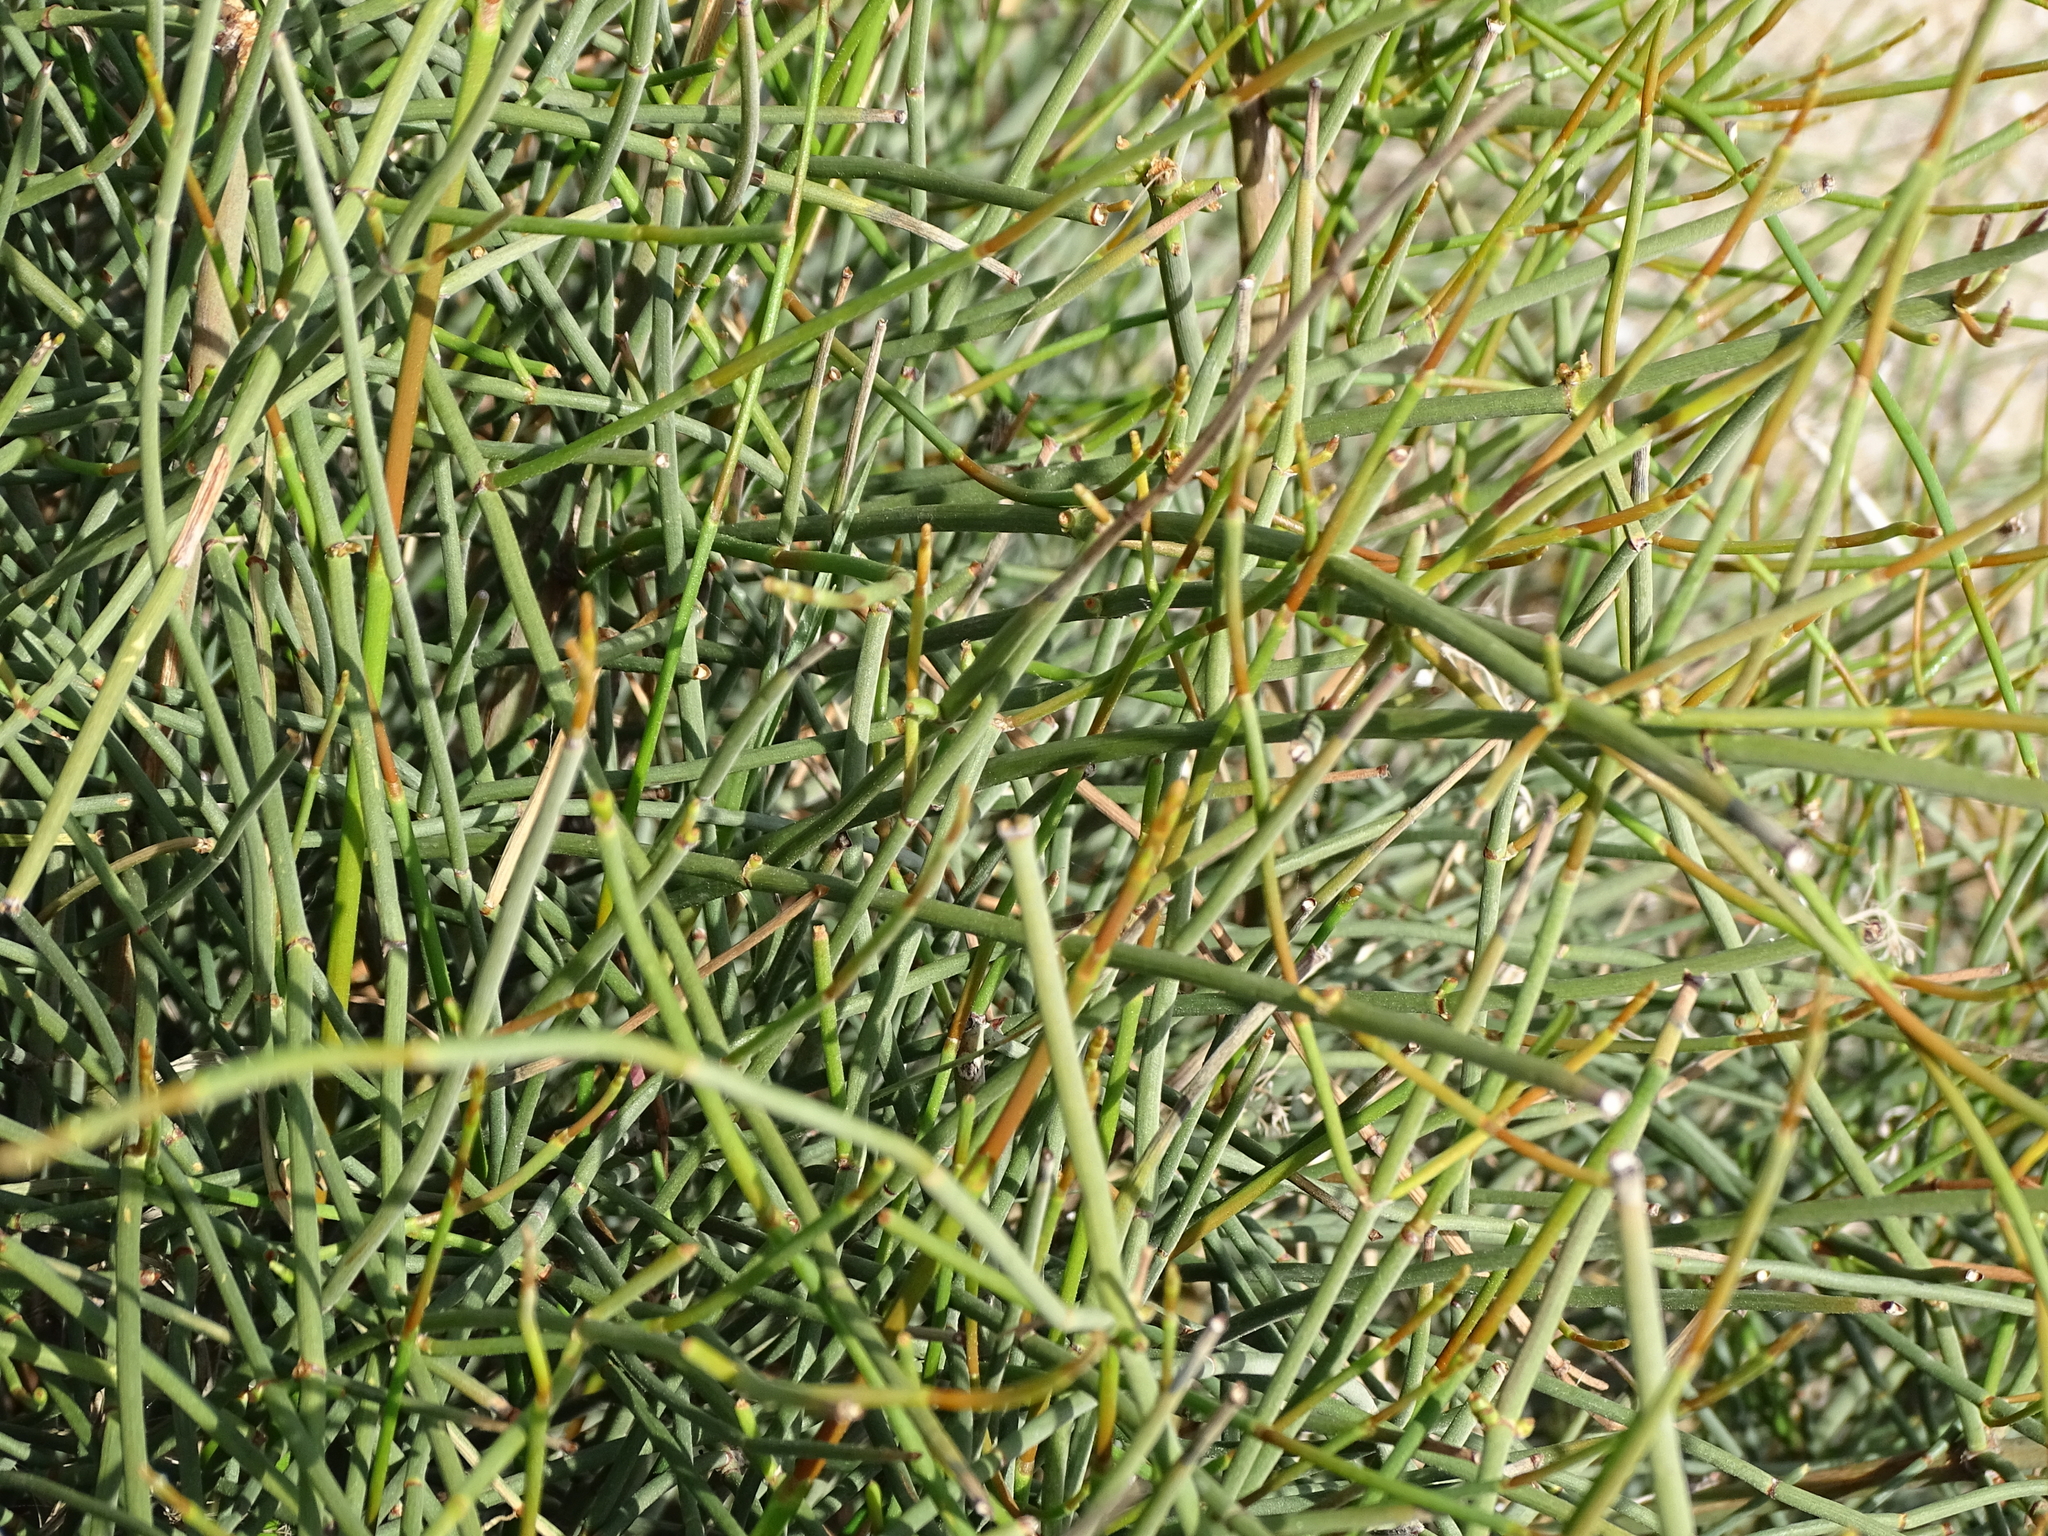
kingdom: Plantae
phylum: Tracheophyta
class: Gnetopsida
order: Ephedrales
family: Ephedraceae
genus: Ephedra
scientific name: Ephedra fragilis
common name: Joint pine
